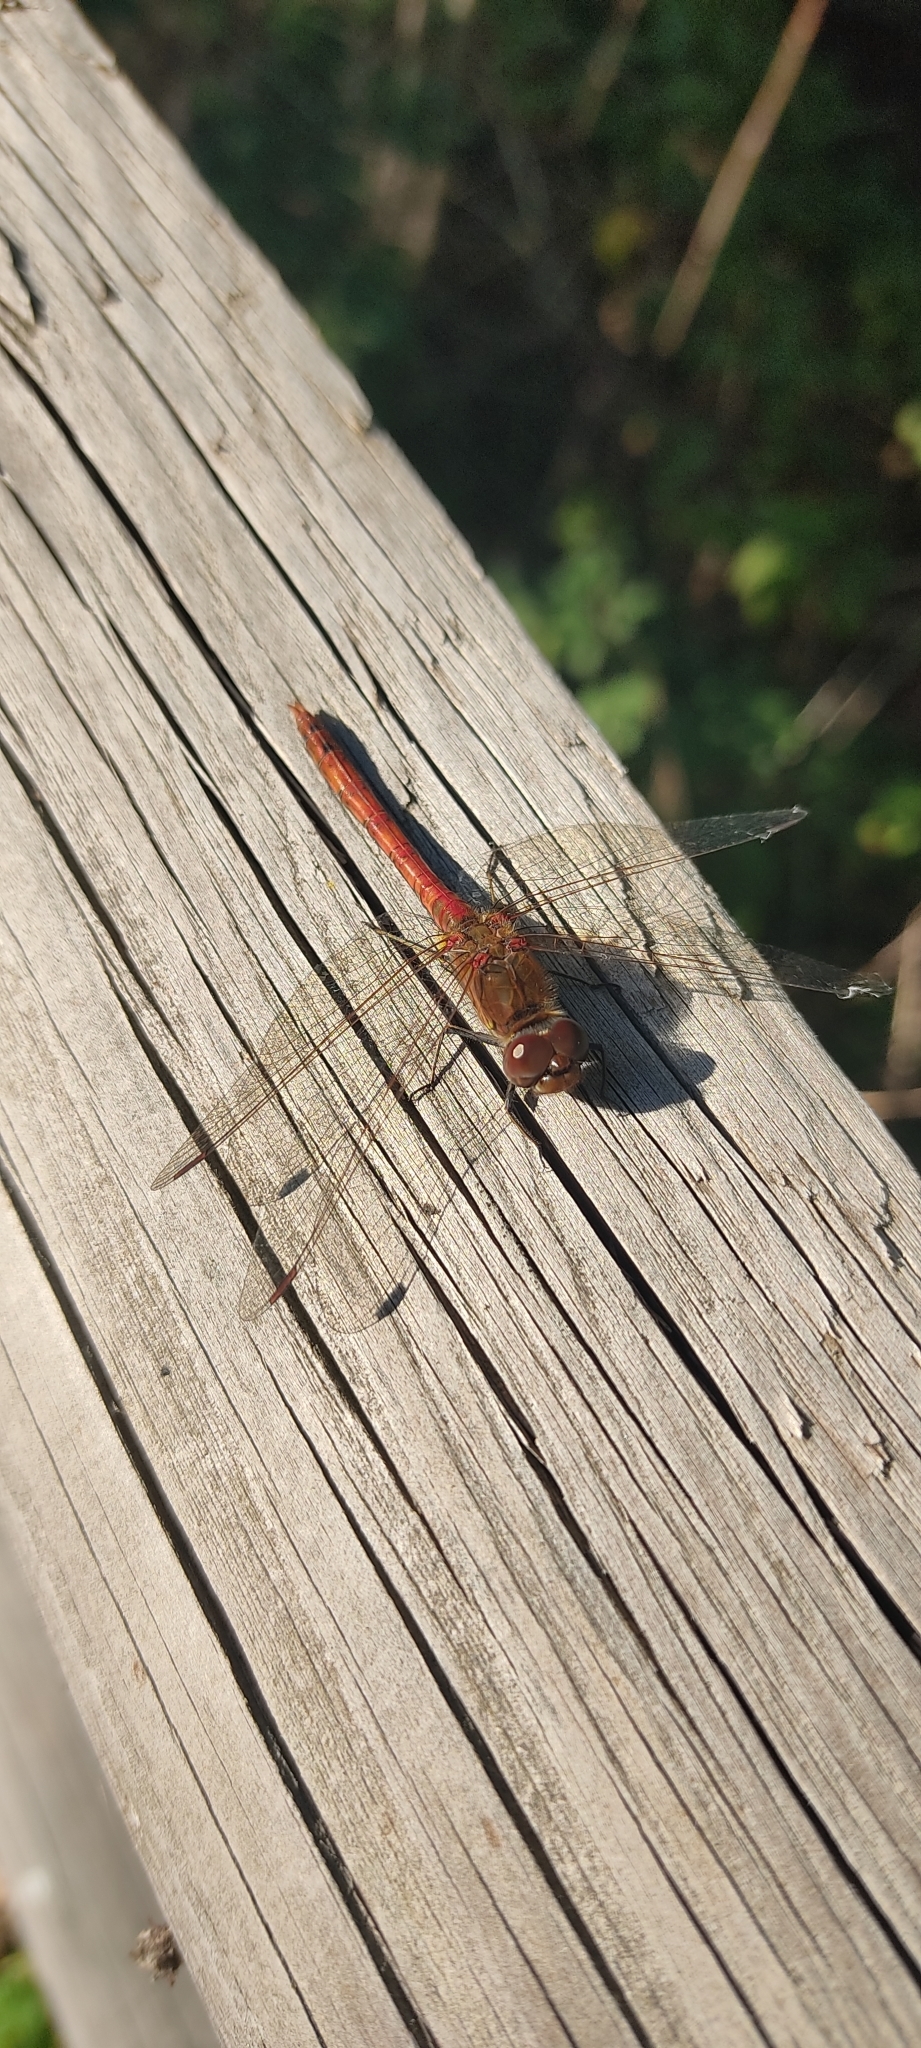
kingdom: Animalia
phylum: Arthropoda
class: Insecta
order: Odonata
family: Libellulidae
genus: Sympetrum
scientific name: Sympetrum striolatum
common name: Common darter
